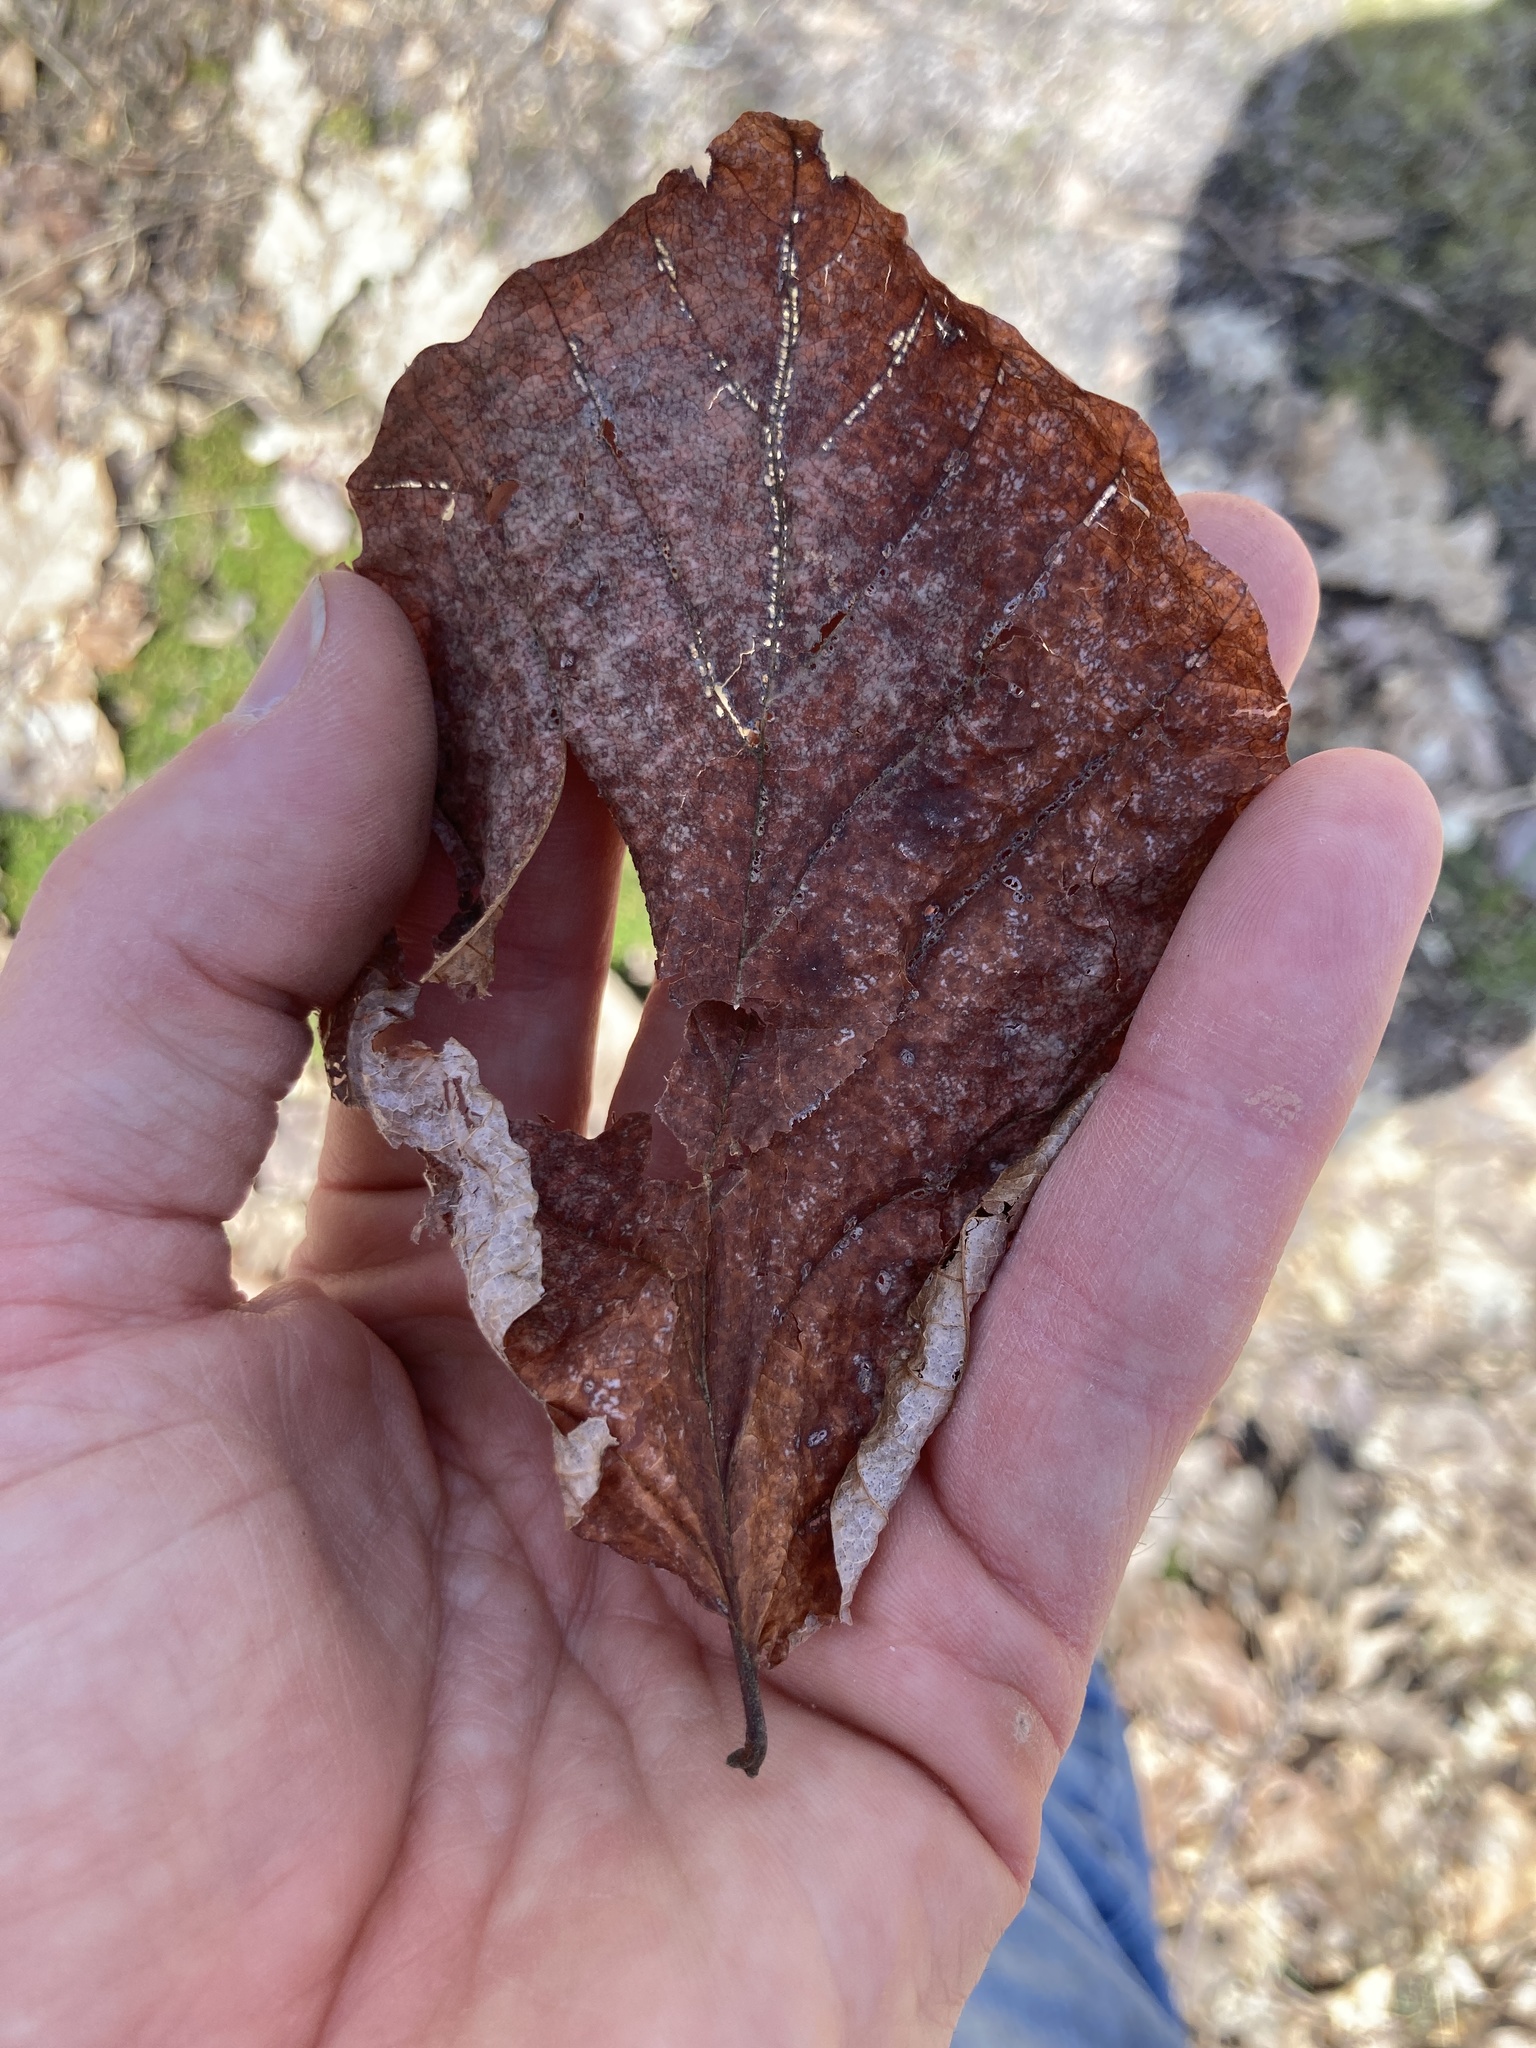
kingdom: Plantae
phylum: Tracheophyta
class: Magnoliopsida
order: Saxifragales
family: Hamamelidaceae
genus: Hamamelis
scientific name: Hamamelis virginiana
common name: Witch-hazel
